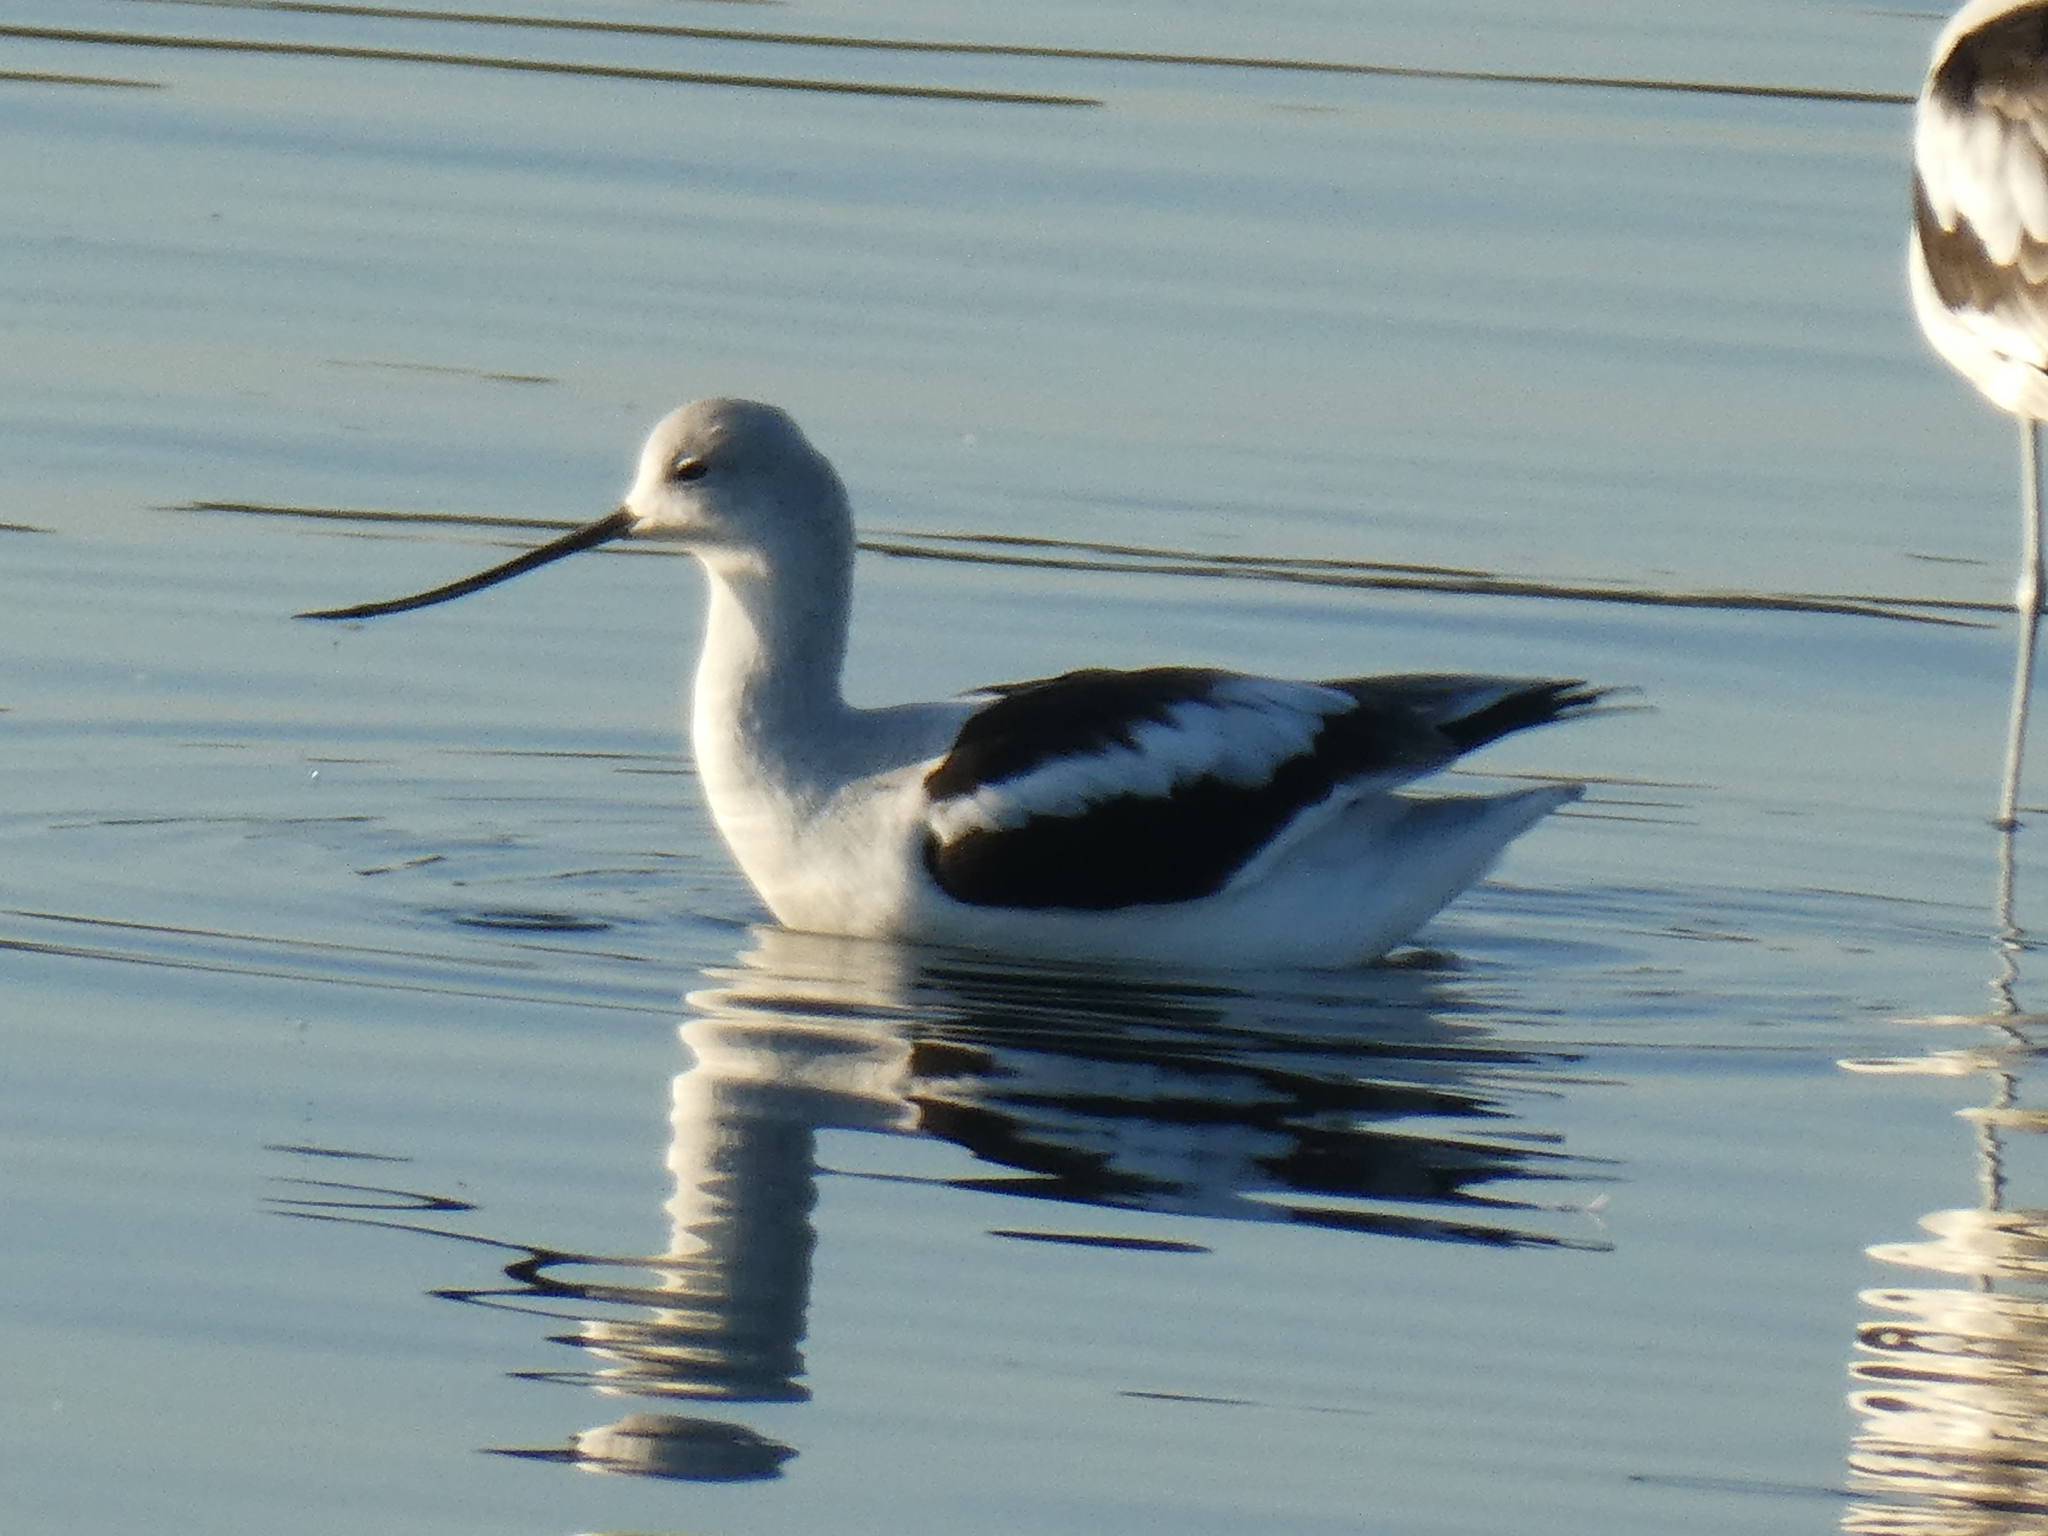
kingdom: Animalia
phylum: Chordata
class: Aves
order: Charadriiformes
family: Recurvirostridae
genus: Recurvirostra
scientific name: Recurvirostra americana
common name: American avocet
